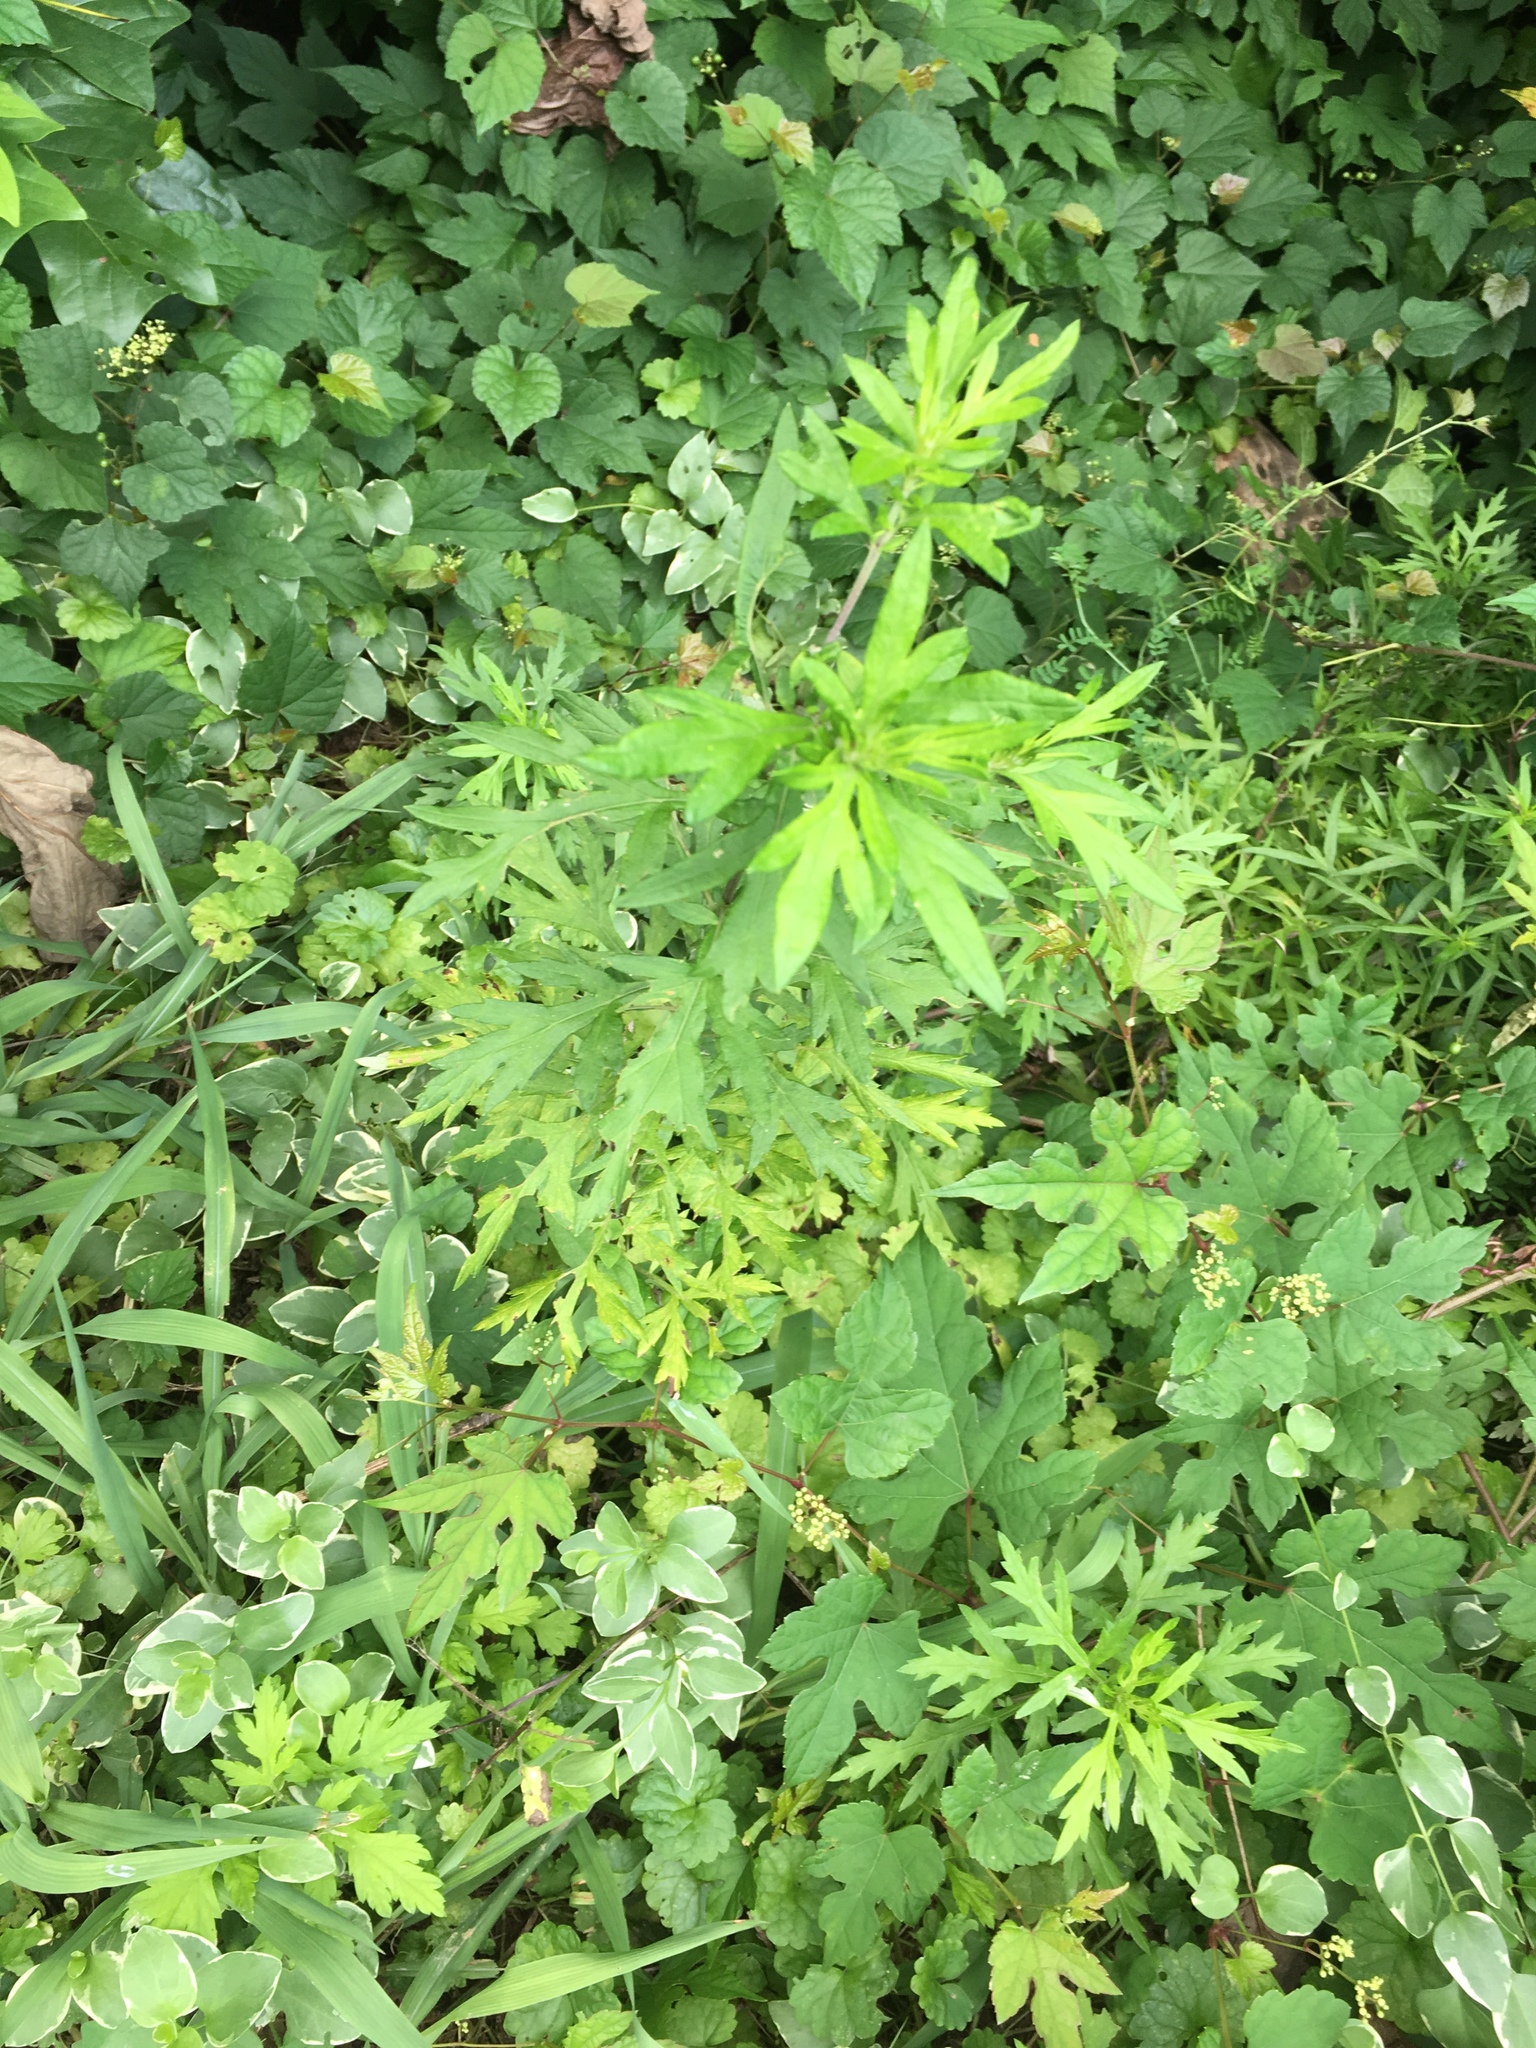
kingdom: Plantae
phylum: Tracheophyta
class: Magnoliopsida
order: Asterales
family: Asteraceae
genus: Artemisia
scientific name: Artemisia vulgaris
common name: Mugwort
